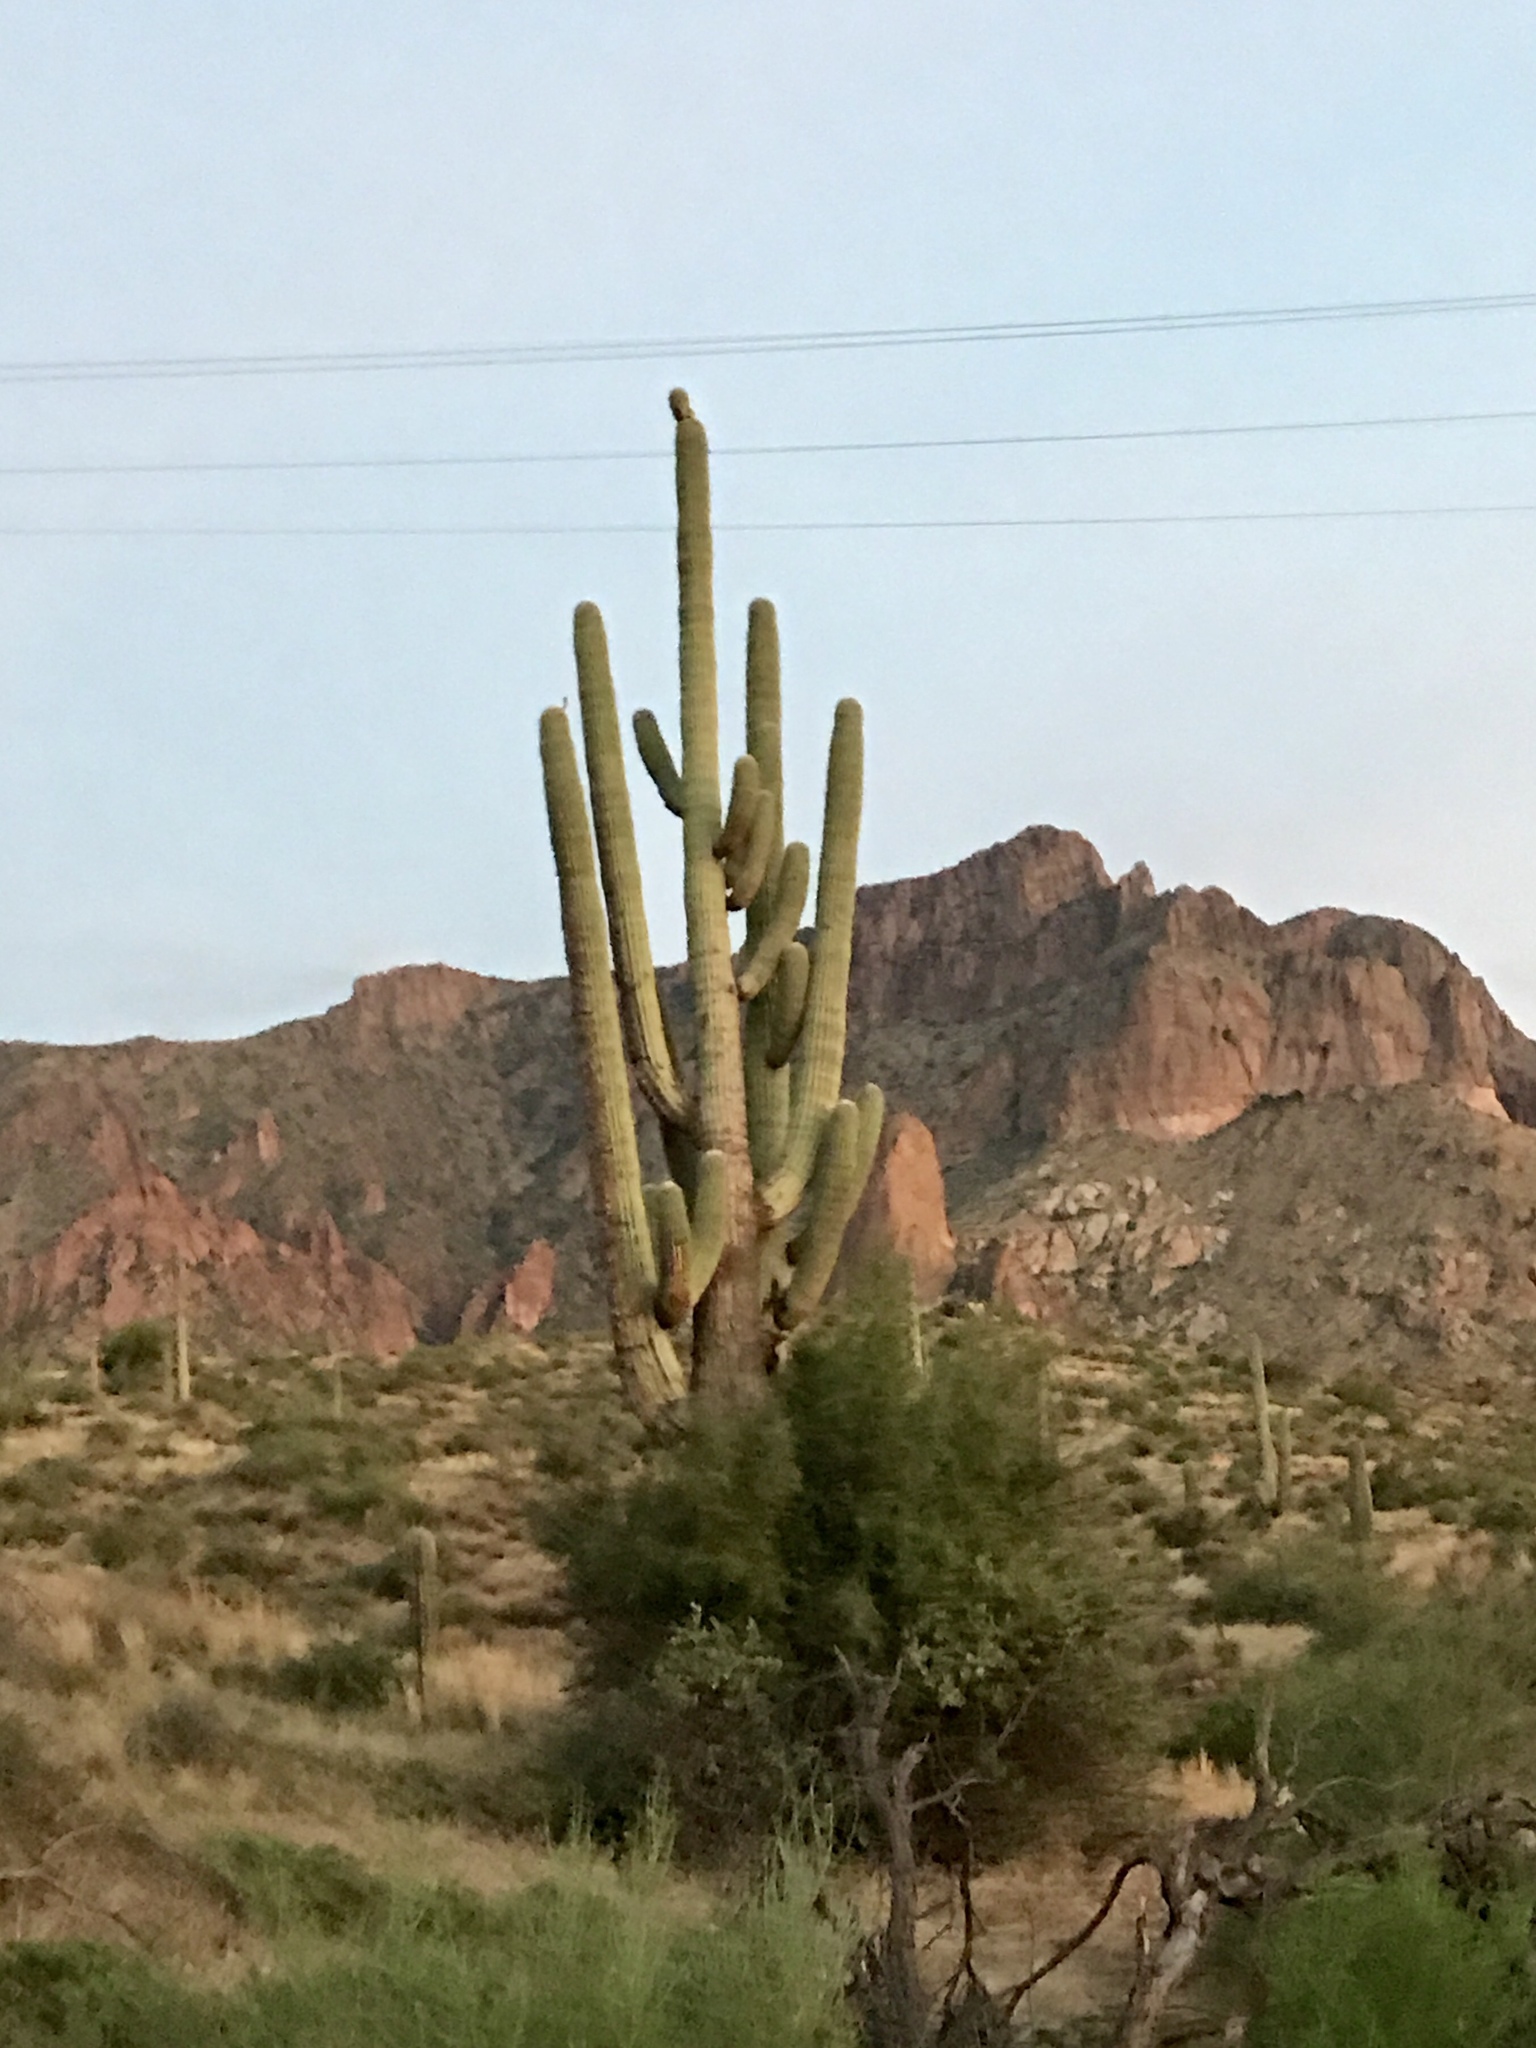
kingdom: Plantae
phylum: Tracheophyta
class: Magnoliopsida
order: Caryophyllales
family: Cactaceae
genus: Carnegiea
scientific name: Carnegiea gigantea
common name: Saguaro
